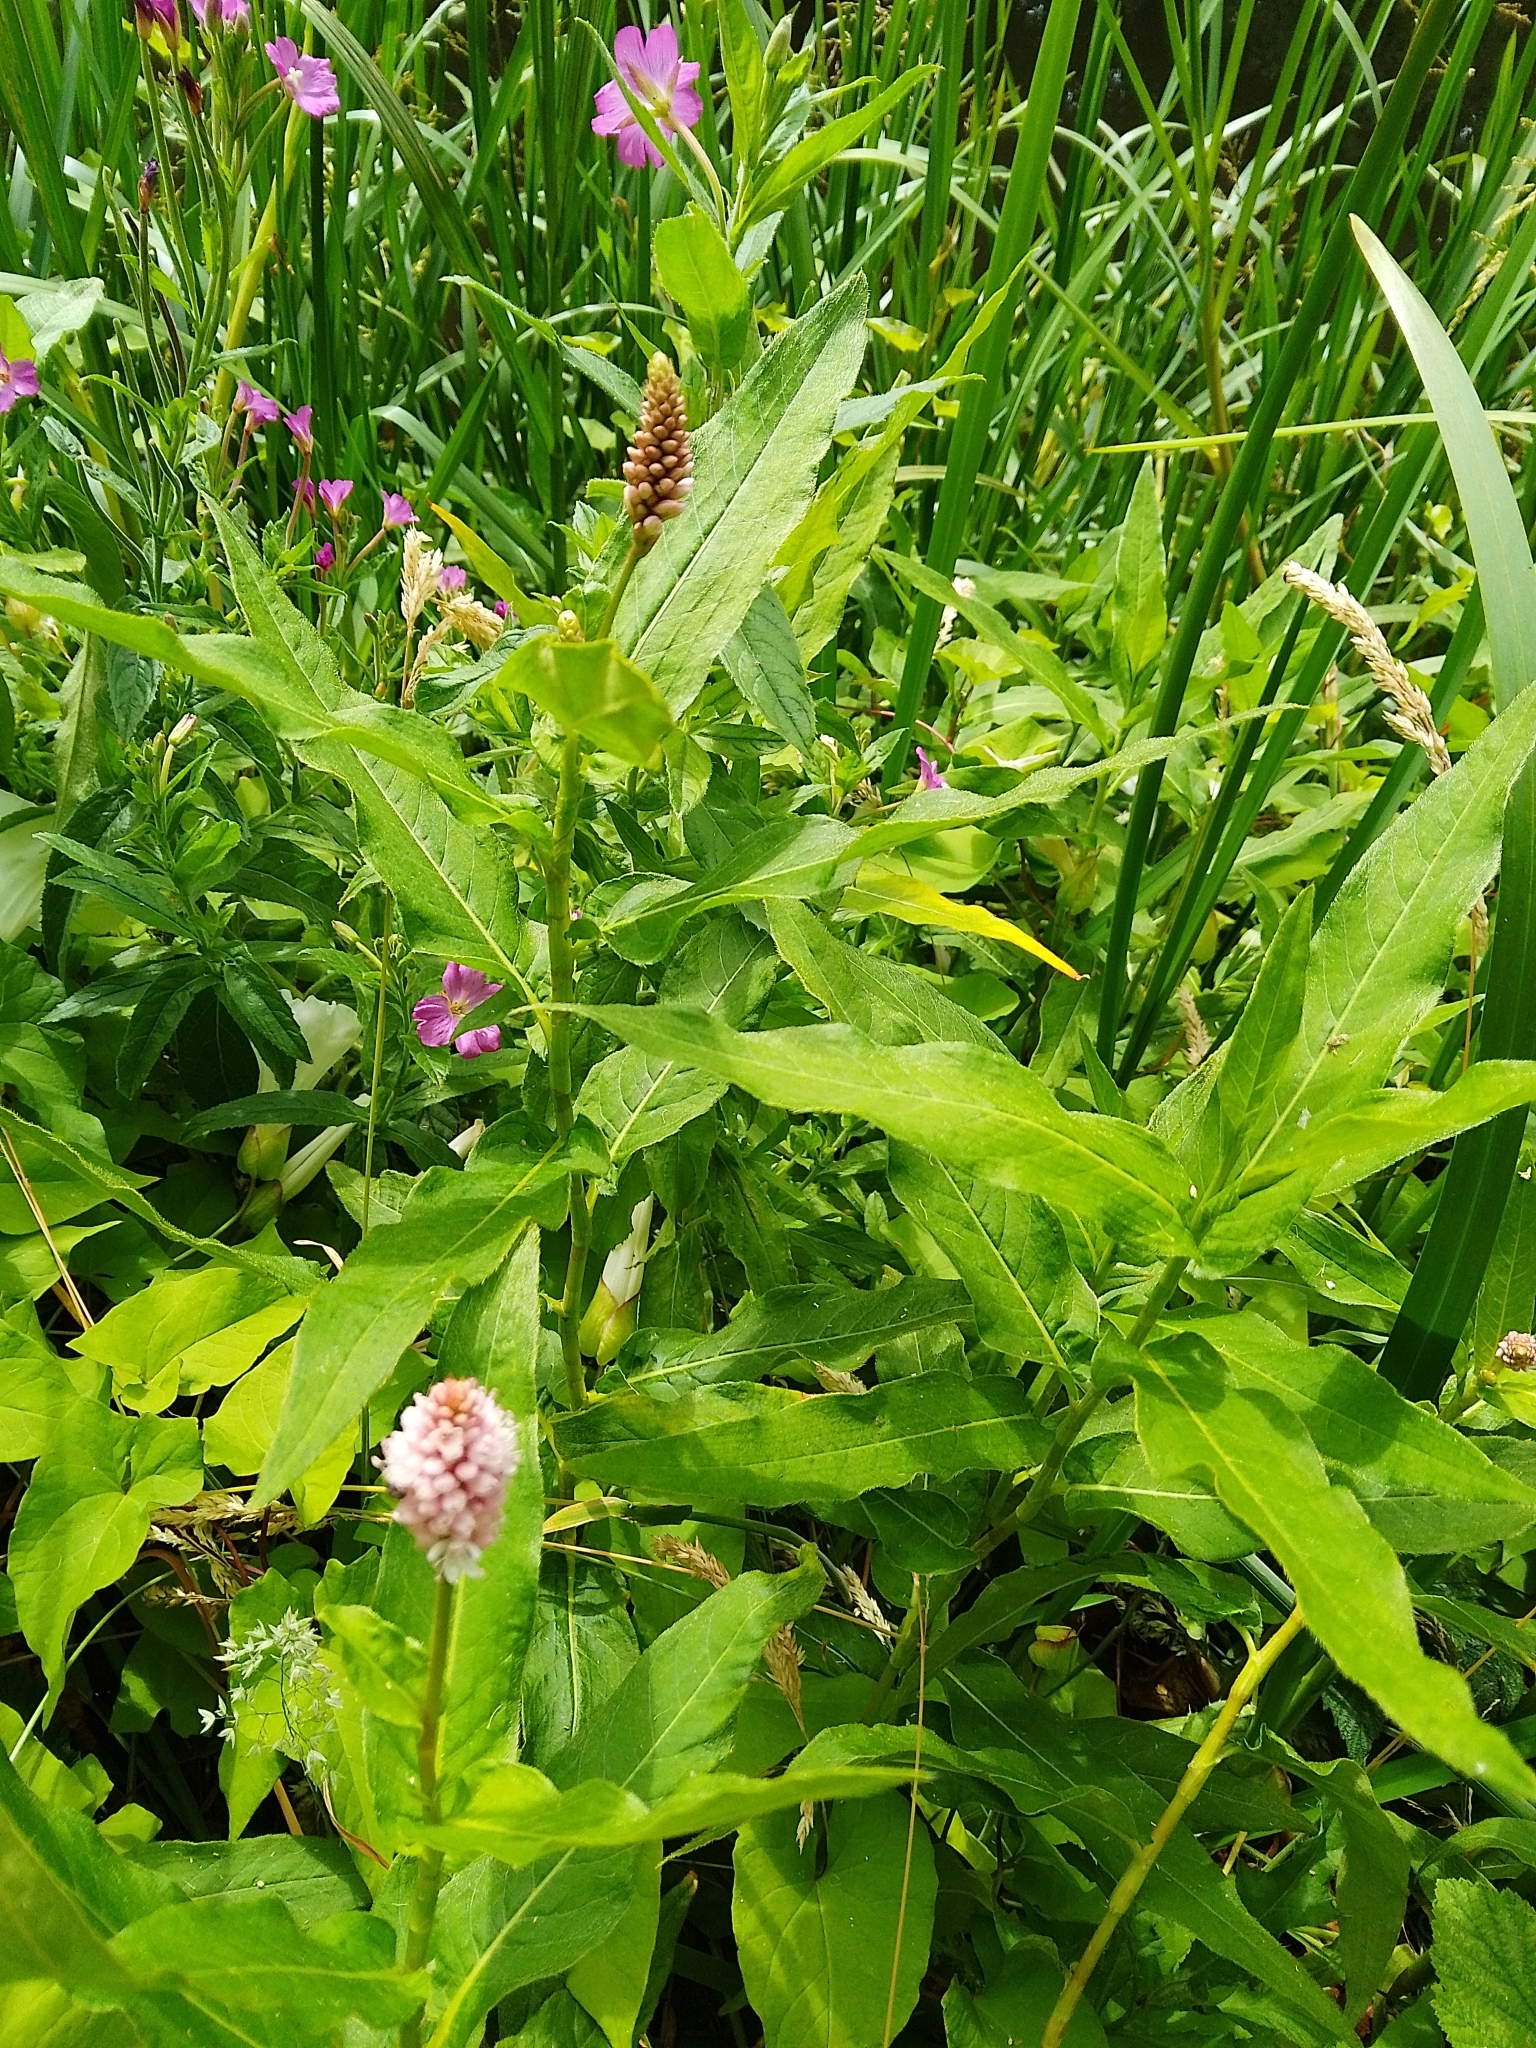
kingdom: Plantae
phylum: Tracheophyta
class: Magnoliopsida
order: Caryophyllales
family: Polygonaceae
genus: Persicaria
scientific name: Persicaria amphibia
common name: Amphibious bistort
